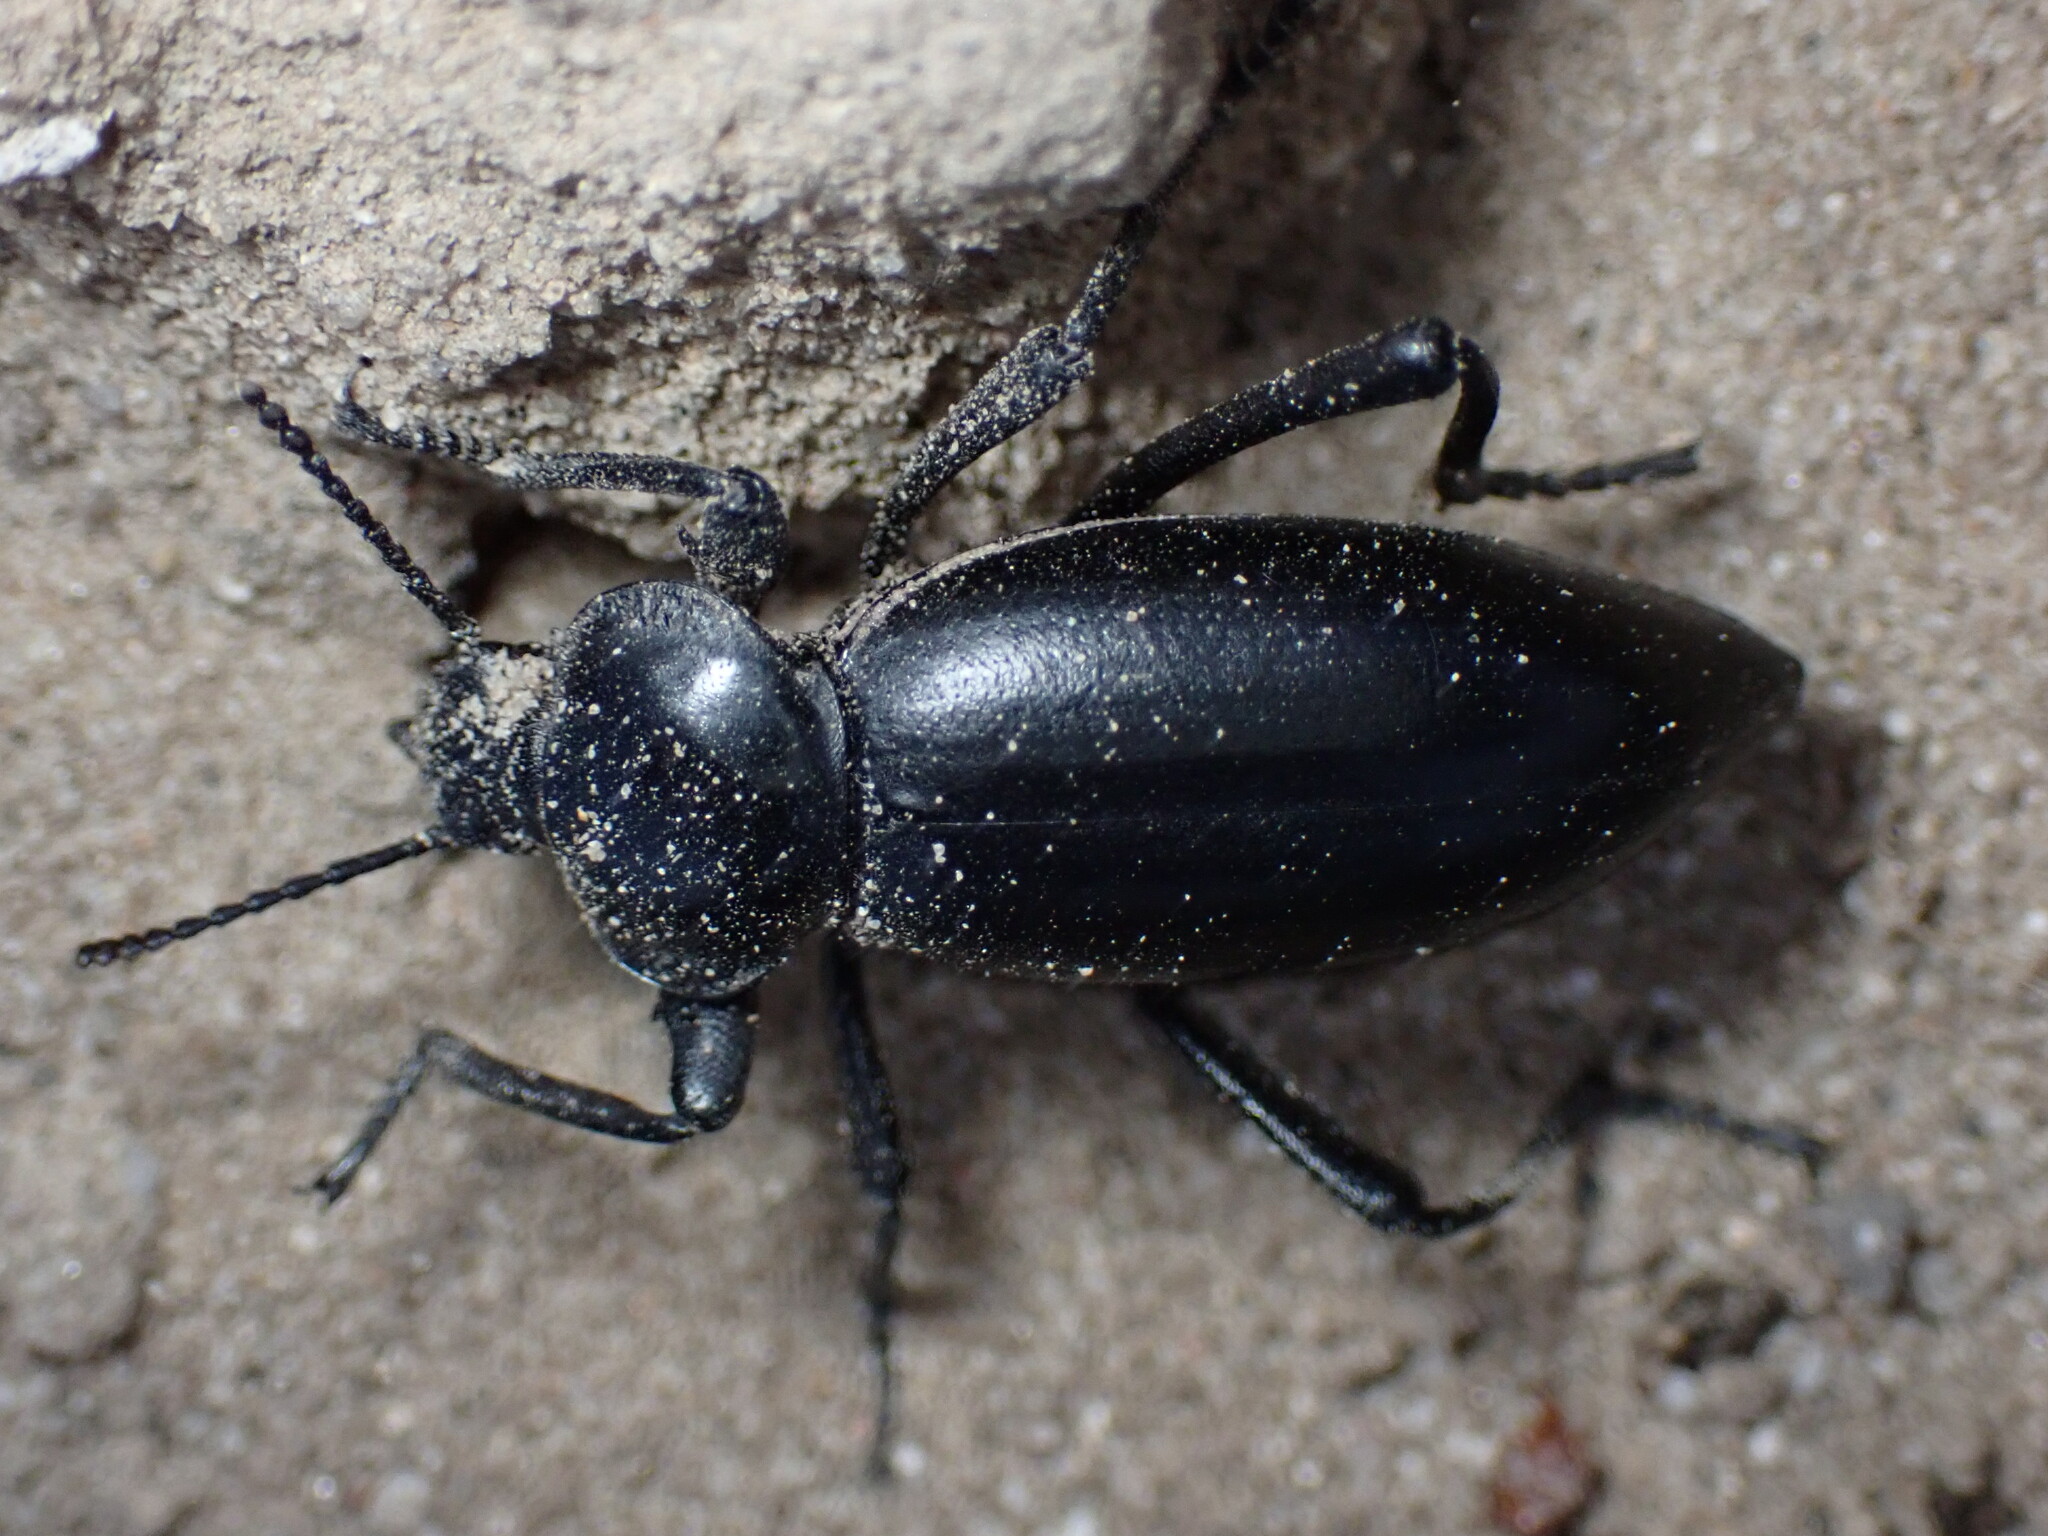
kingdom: Animalia
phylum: Arthropoda
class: Insecta
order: Coleoptera
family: Tenebrionidae
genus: Eleodes
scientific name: Eleodes acuticauda
